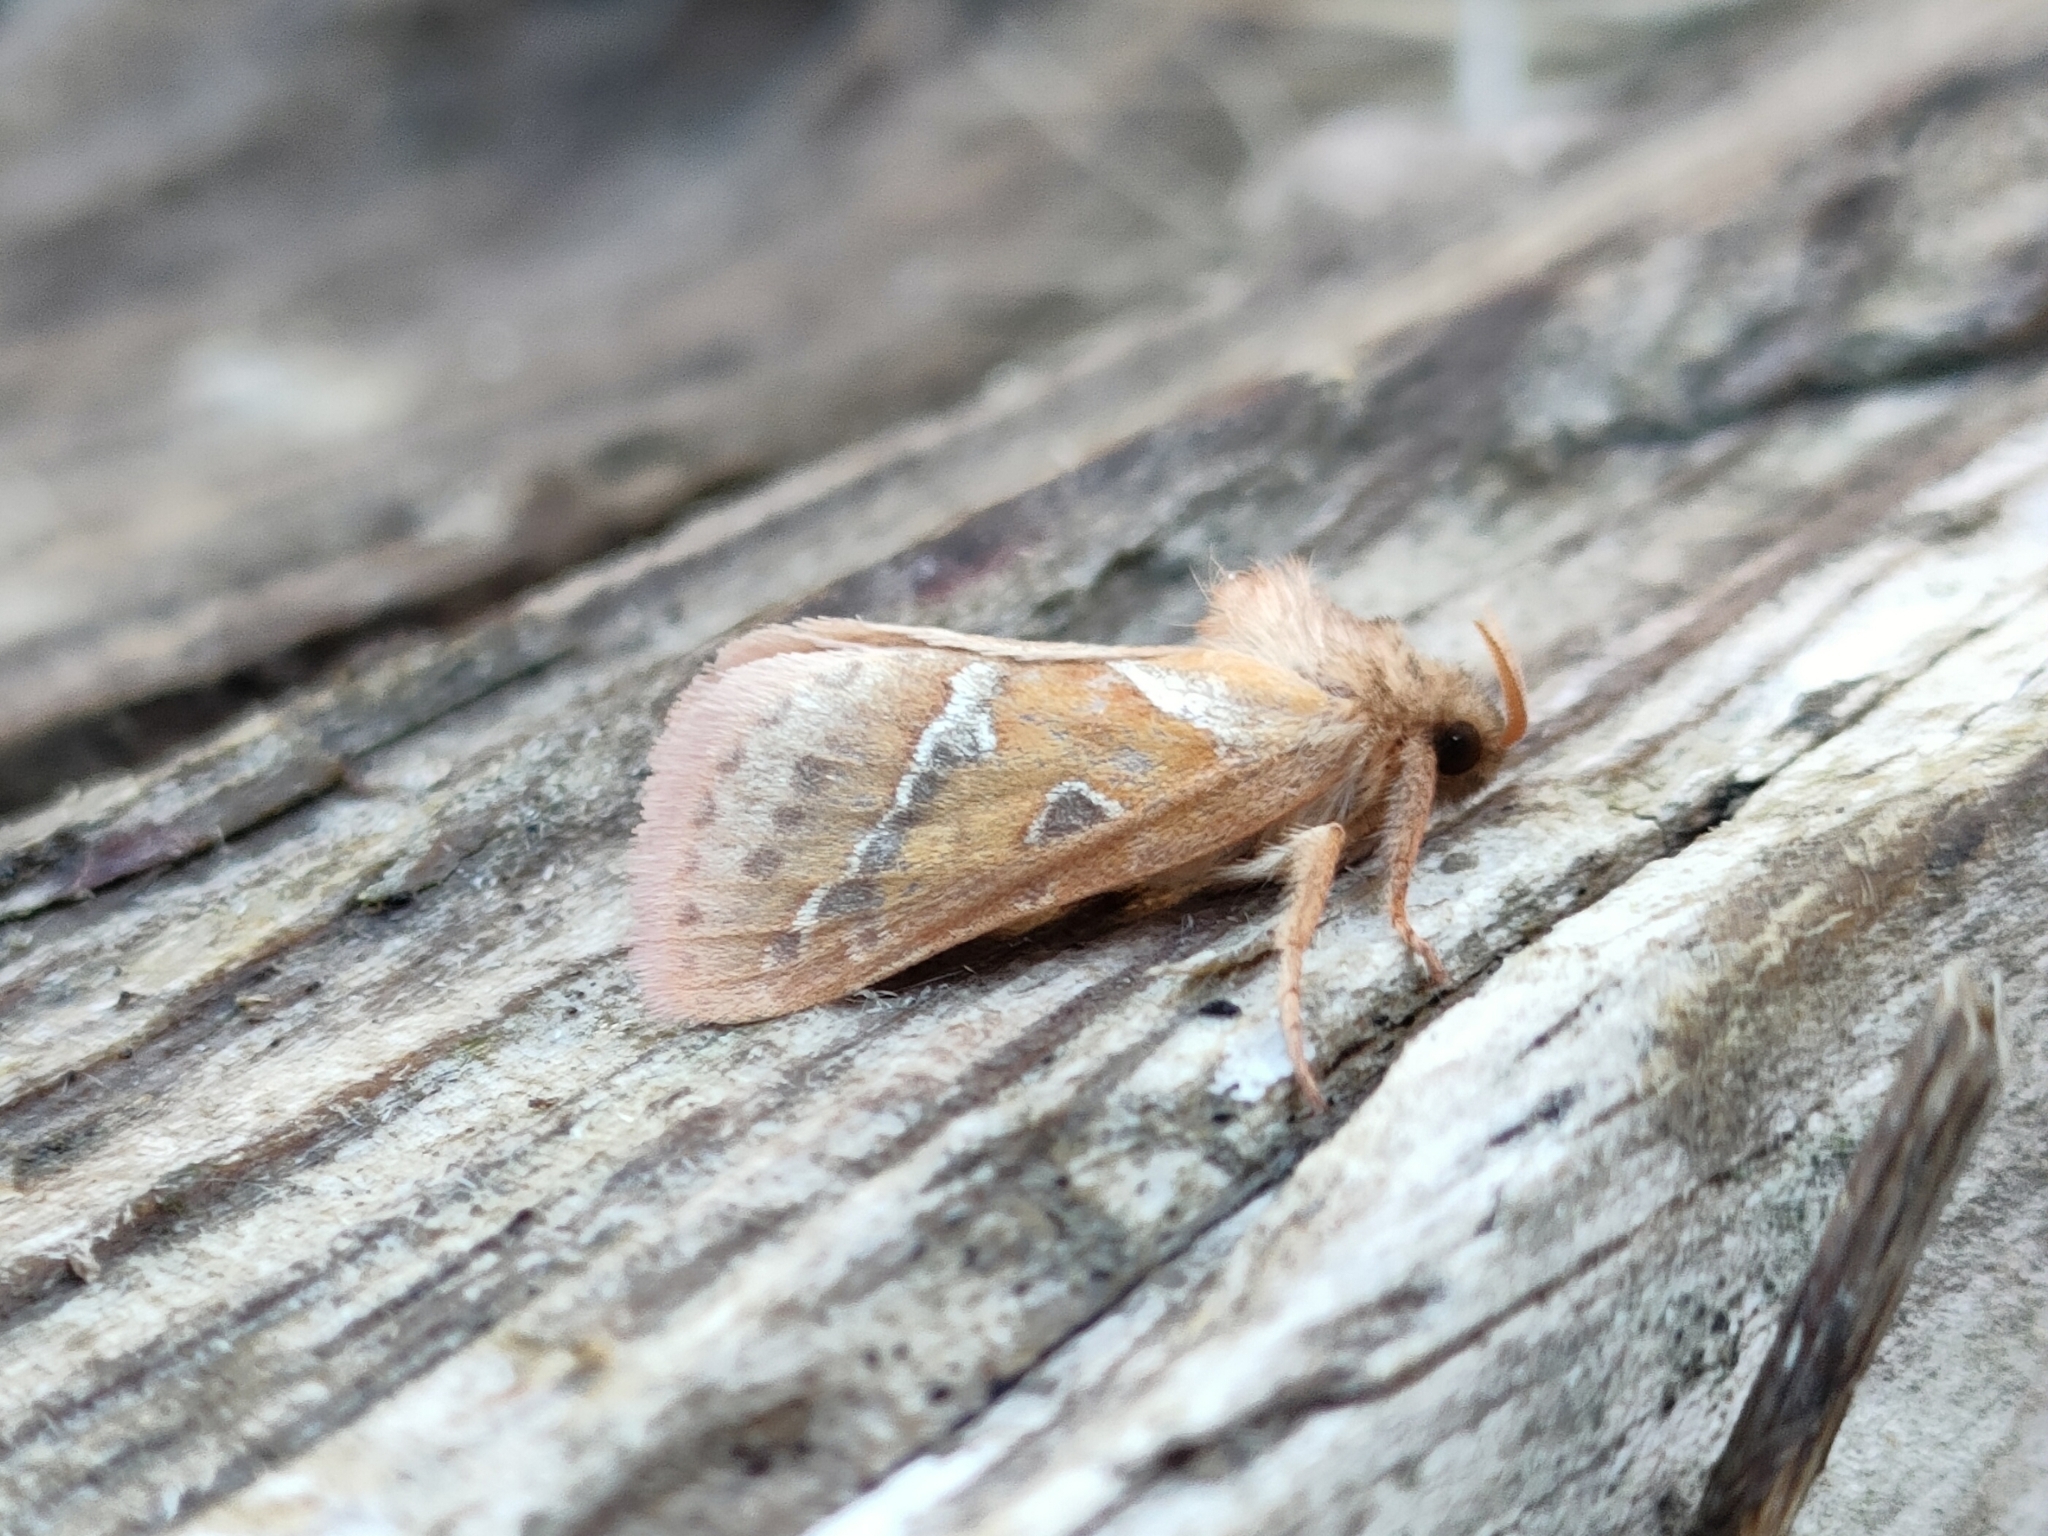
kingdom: Animalia
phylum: Arthropoda
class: Insecta
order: Lepidoptera
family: Hepialidae
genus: Triodia
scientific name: Triodia sylvina
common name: Orange swift
